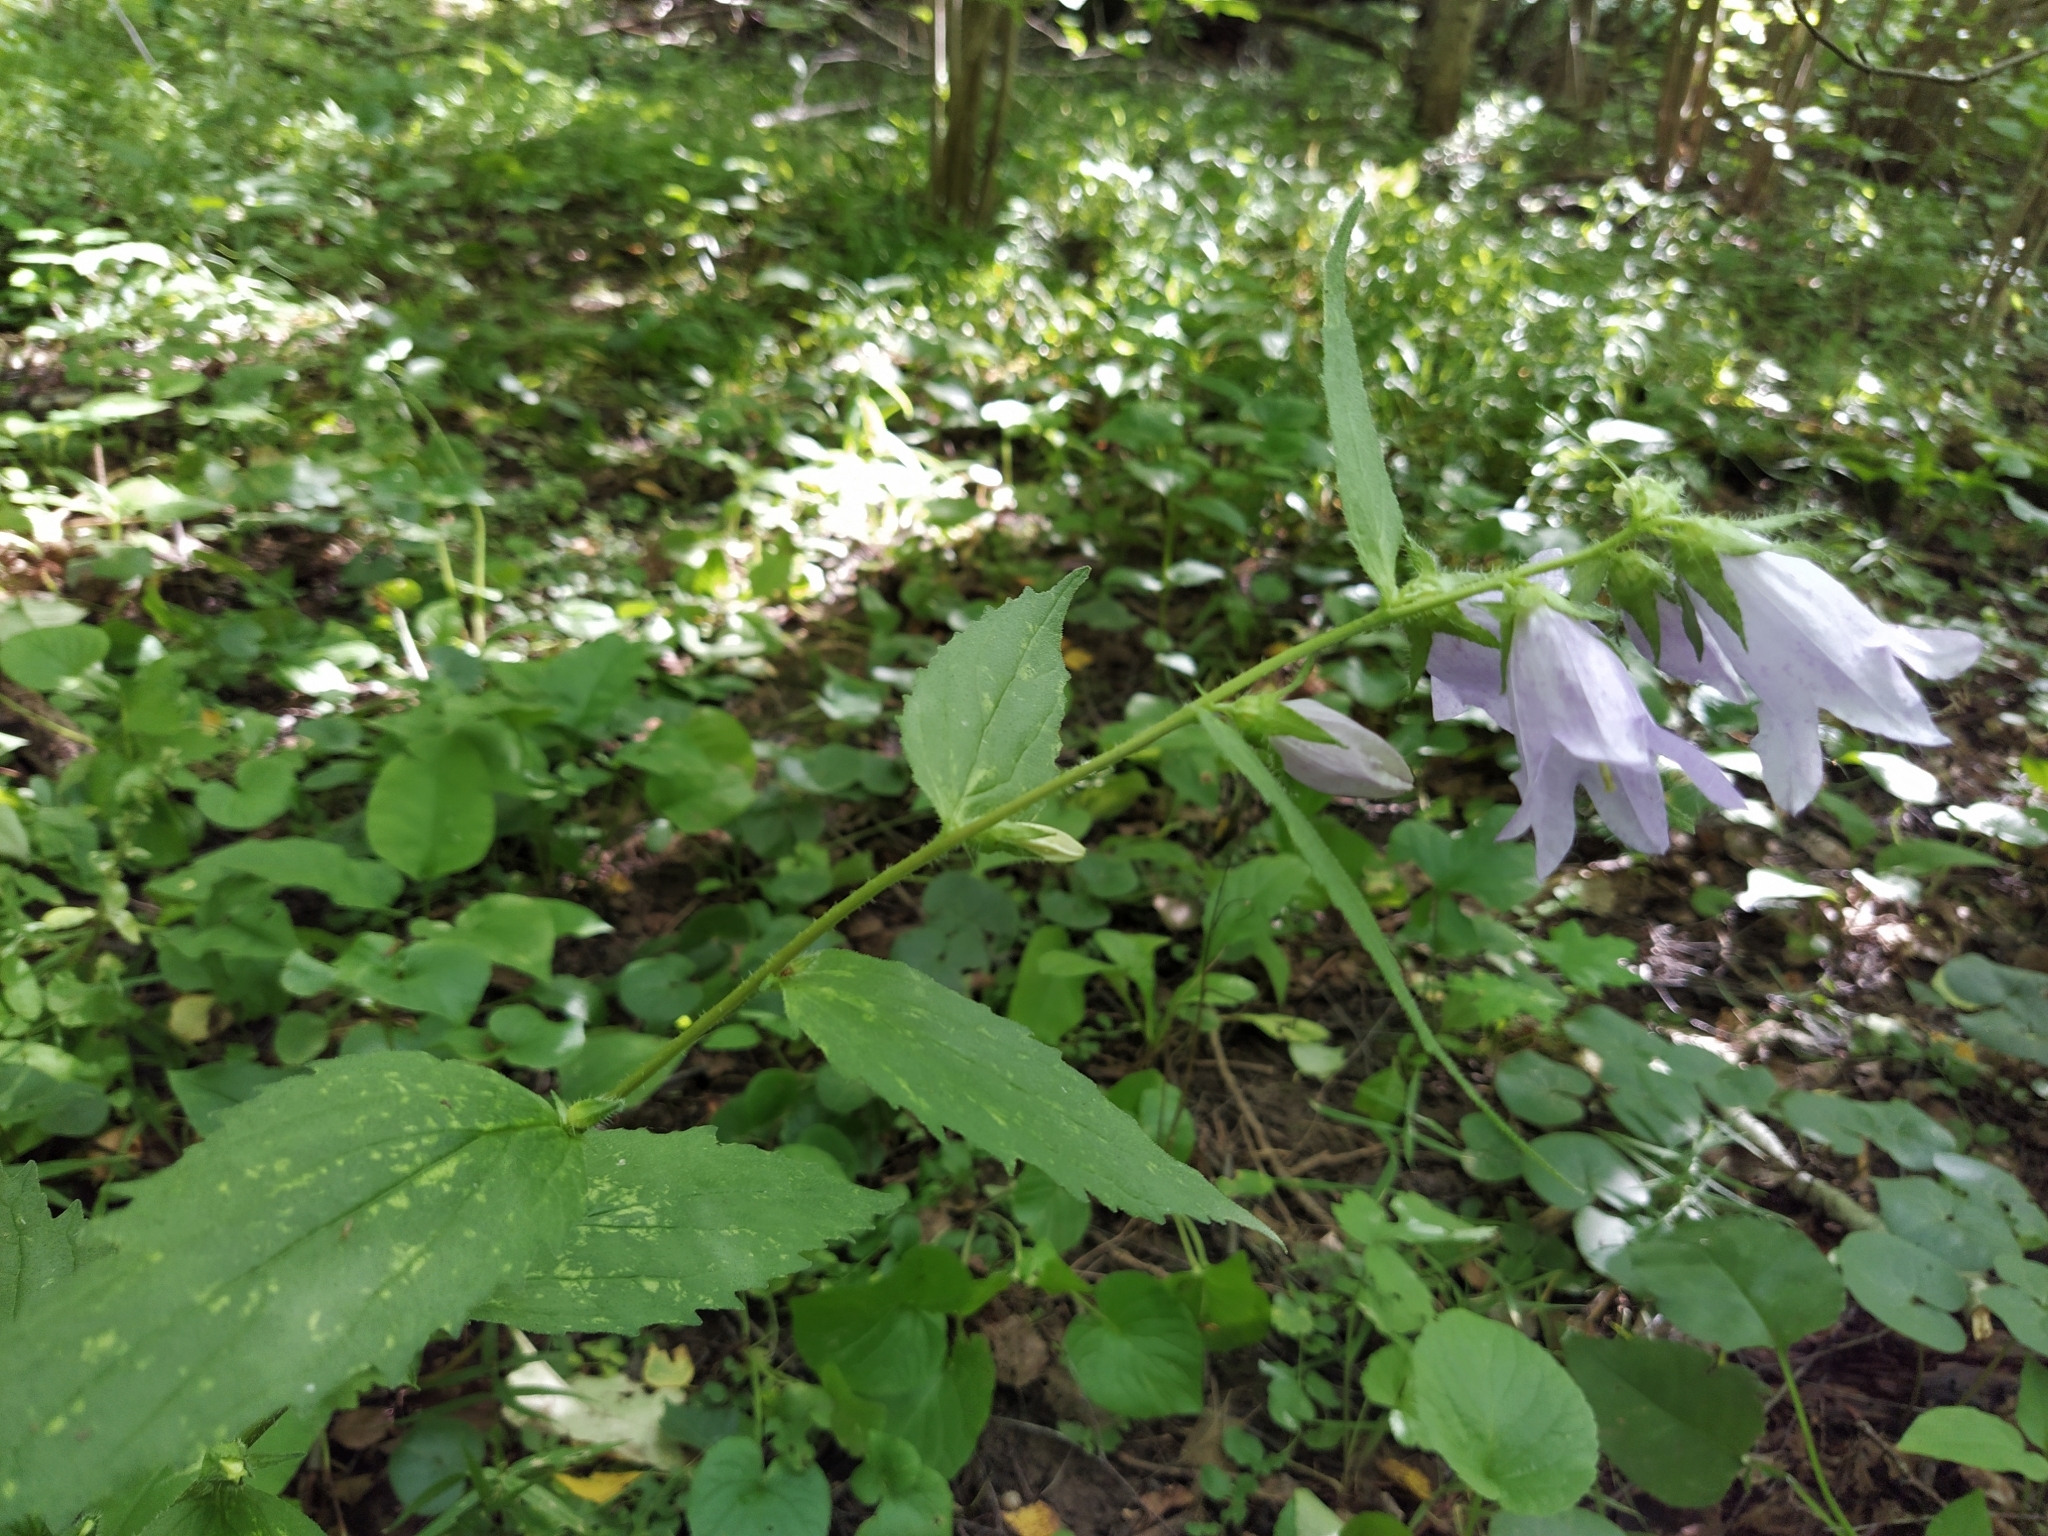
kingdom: Plantae
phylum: Tracheophyta
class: Magnoliopsida
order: Asterales
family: Campanulaceae
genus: Campanula
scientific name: Campanula trachelium
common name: Nettle-leaved bellflower
